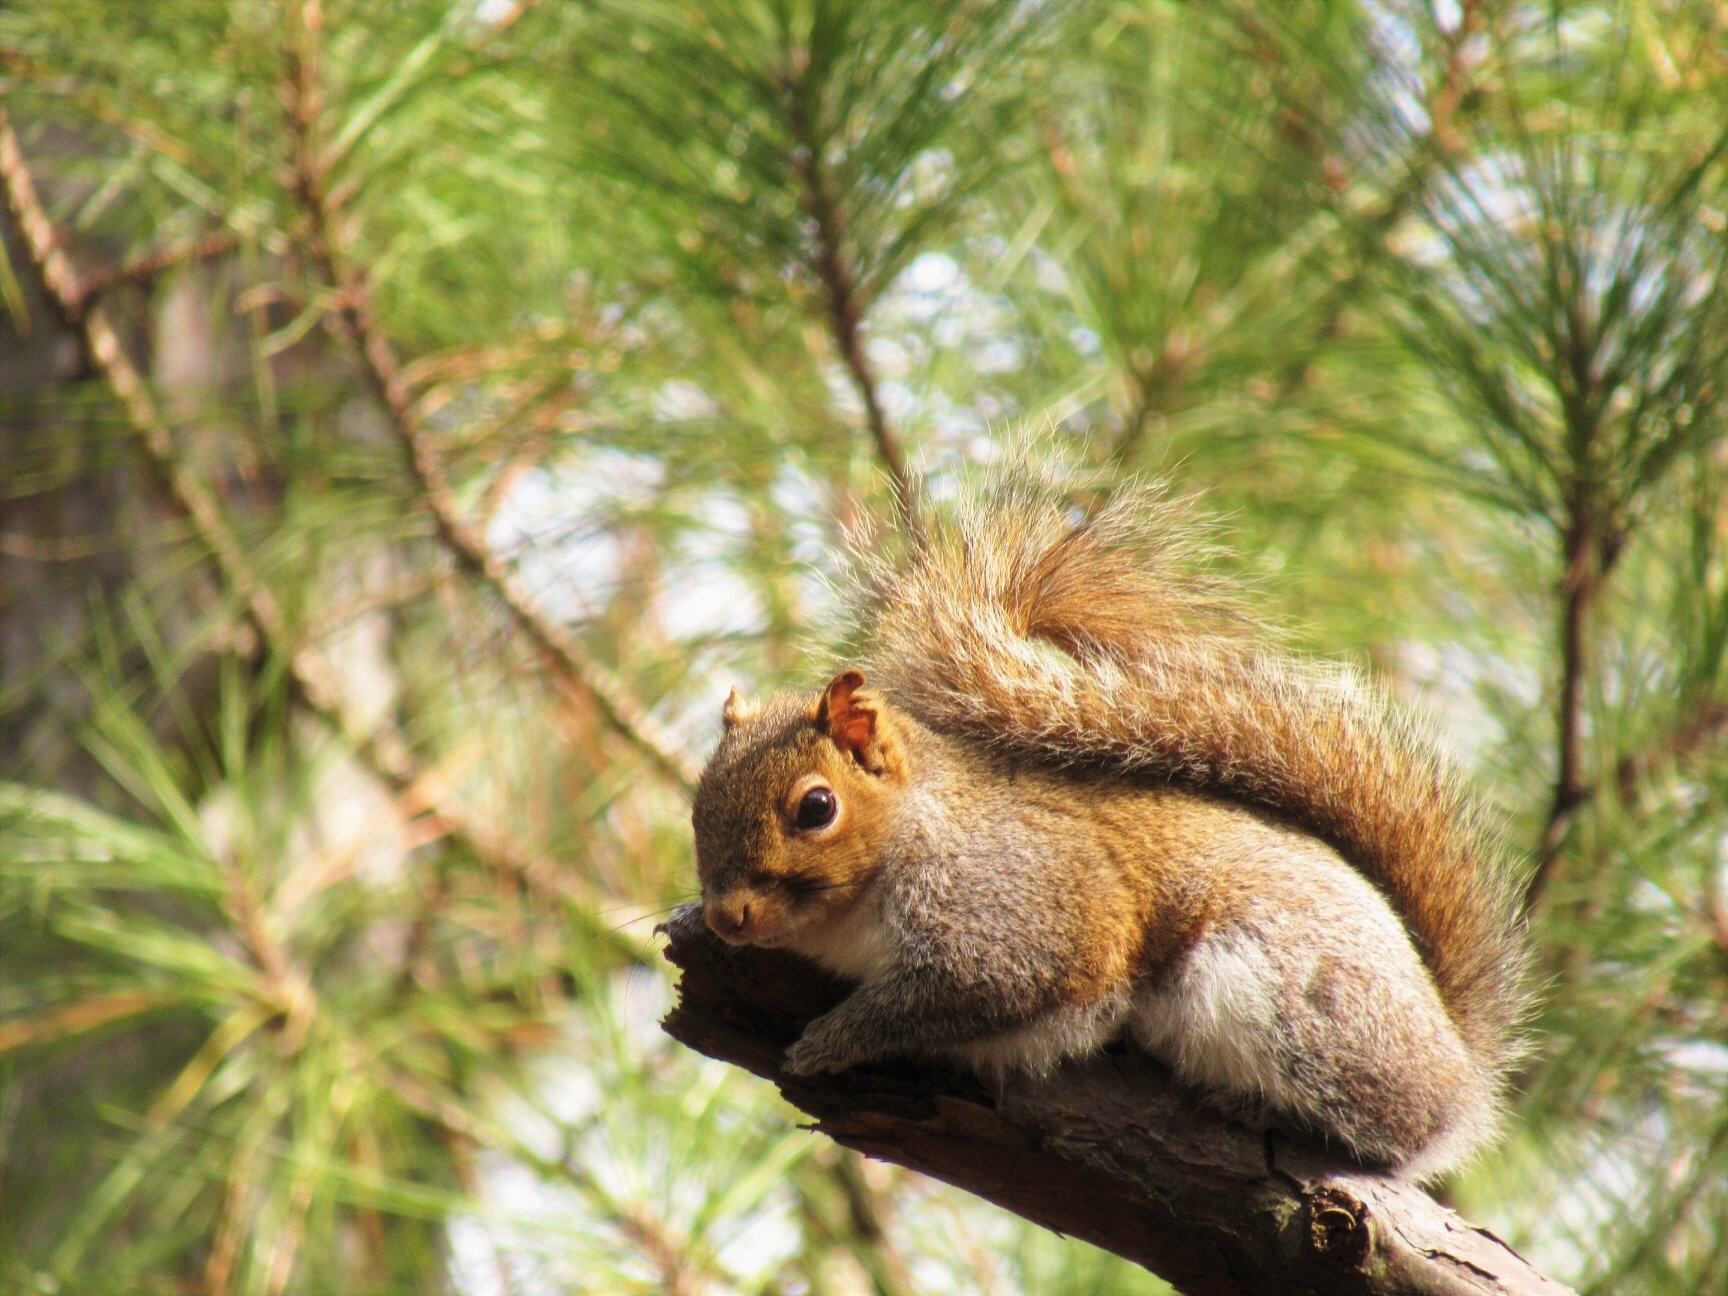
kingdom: Animalia
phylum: Chordata
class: Mammalia
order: Rodentia
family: Sciuridae
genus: Sciurus
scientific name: Sciurus carolinensis
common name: Eastern gray squirrel
